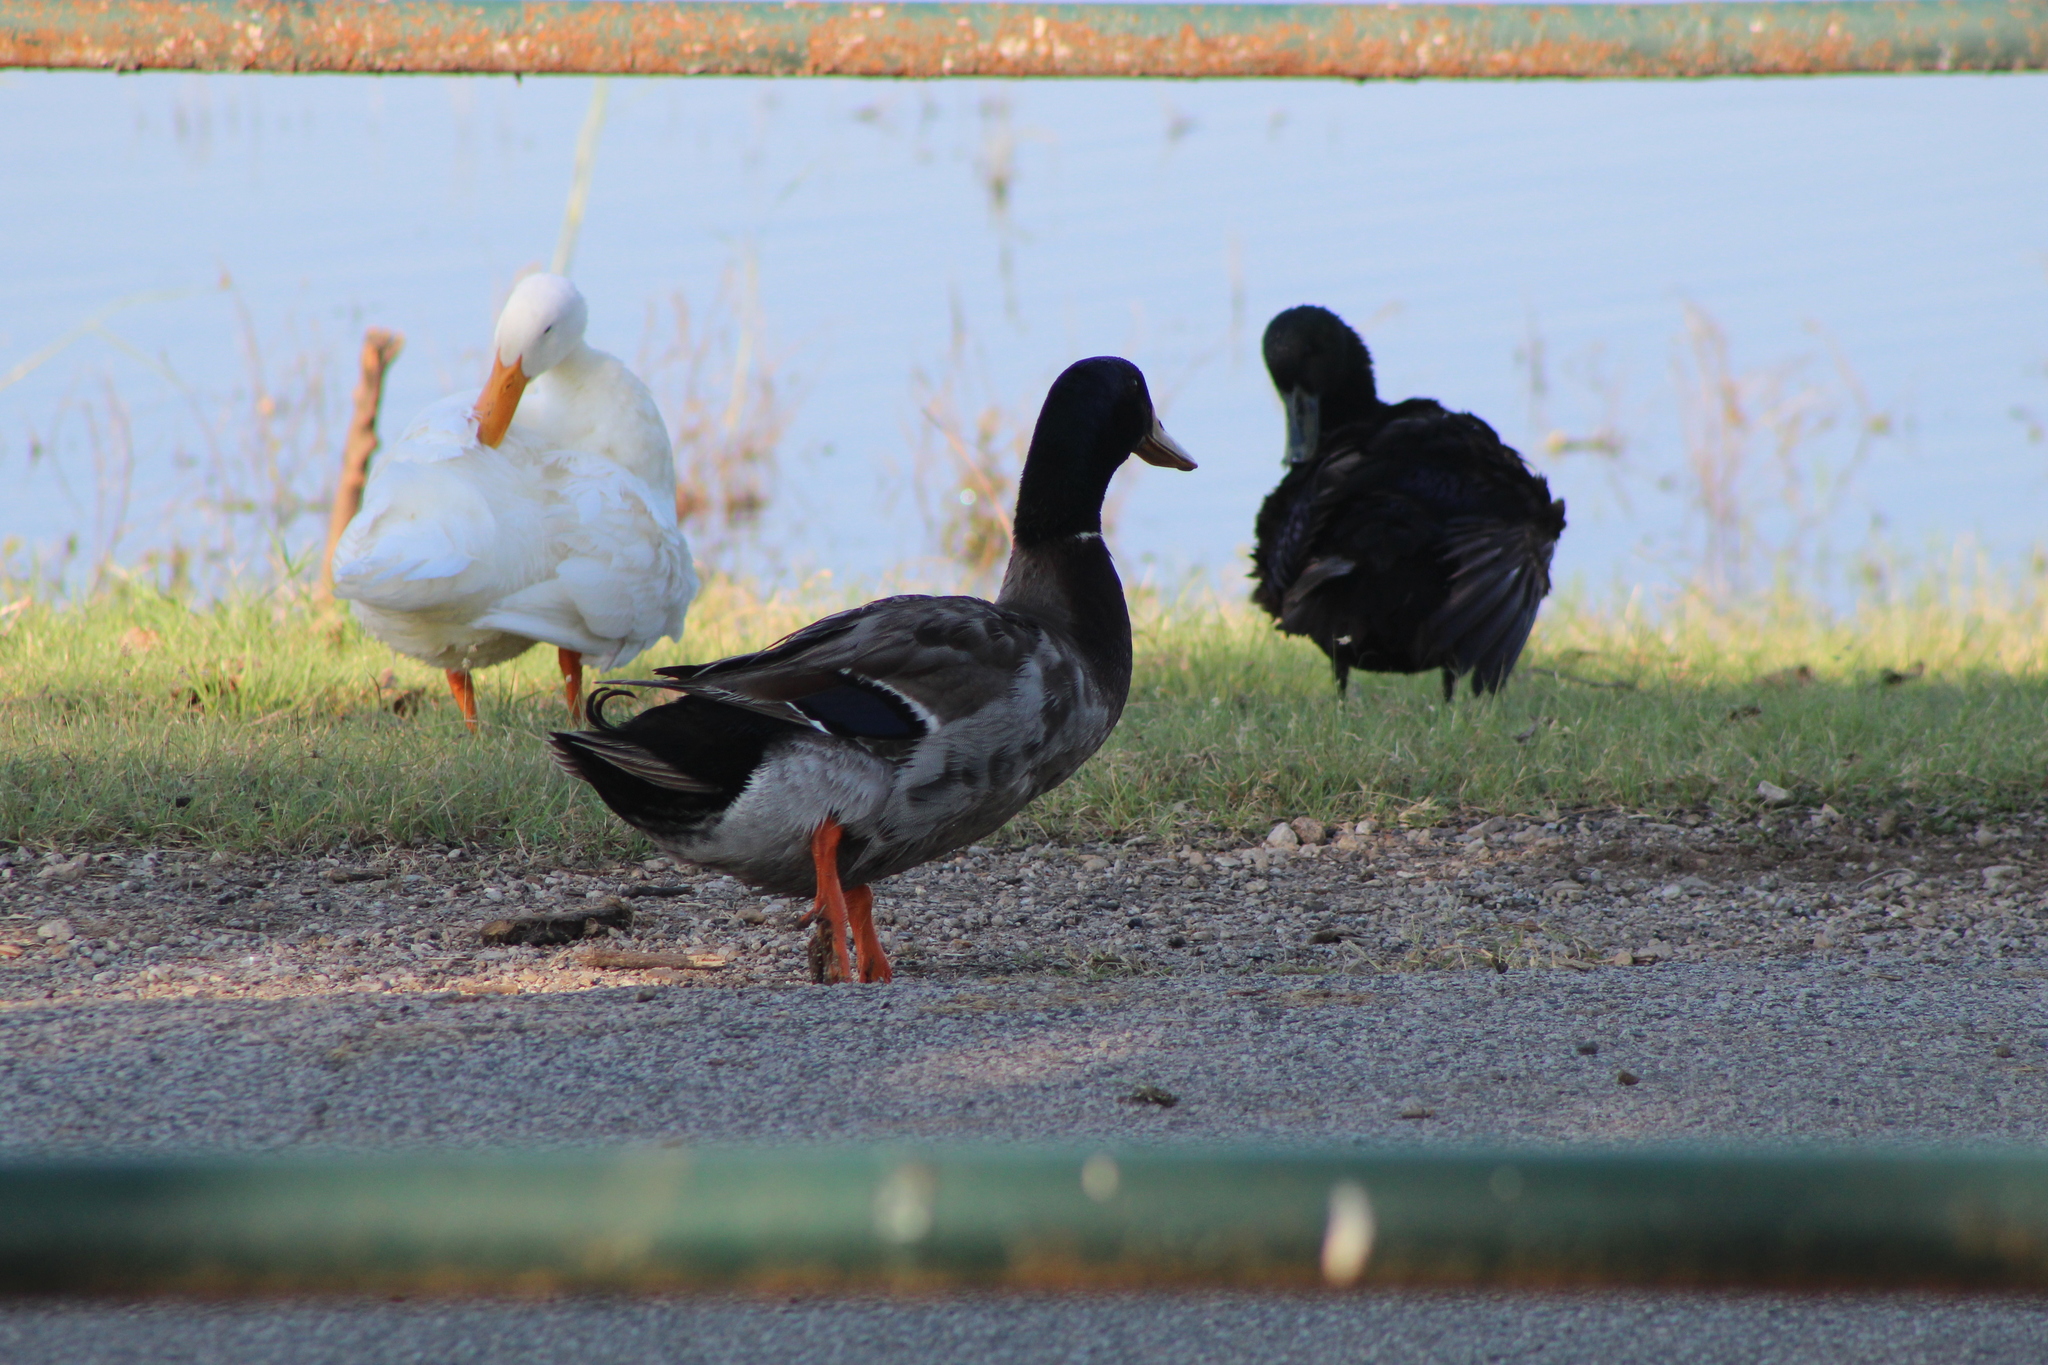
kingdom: Animalia
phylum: Chordata
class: Aves
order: Anseriformes
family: Anatidae
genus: Anas
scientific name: Anas platyrhynchos
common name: Mallard
